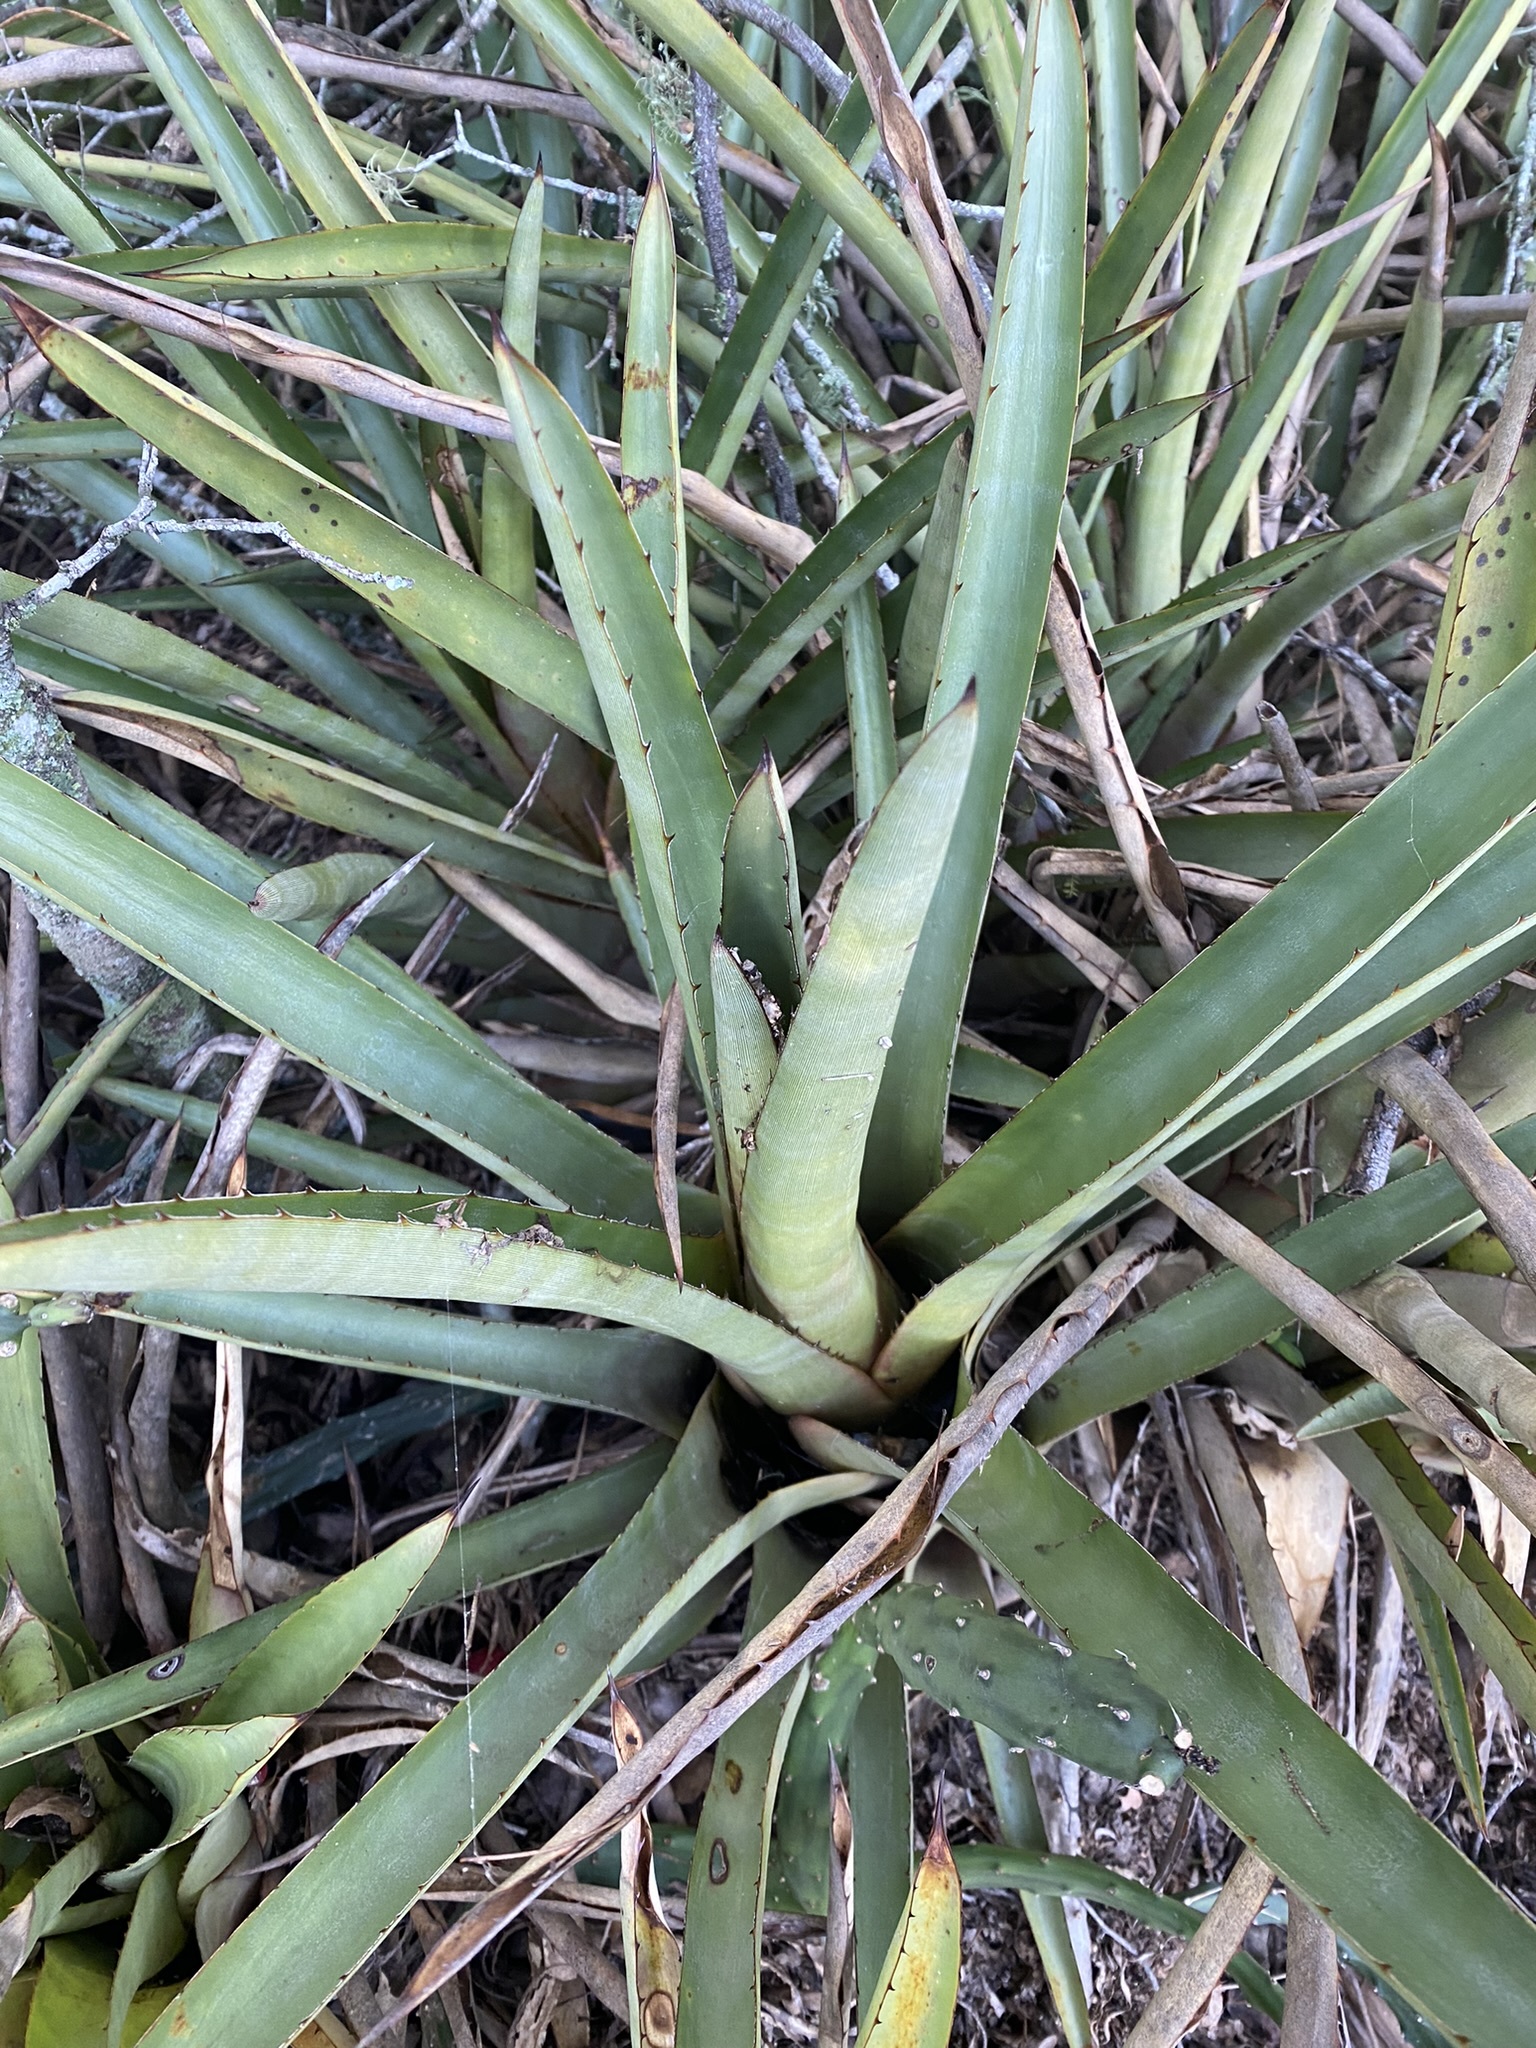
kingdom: Plantae
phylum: Tracheophyta
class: Liliopsida
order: Poales
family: Bromeliaceae
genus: Aechmea
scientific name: Aechmea distichantha
